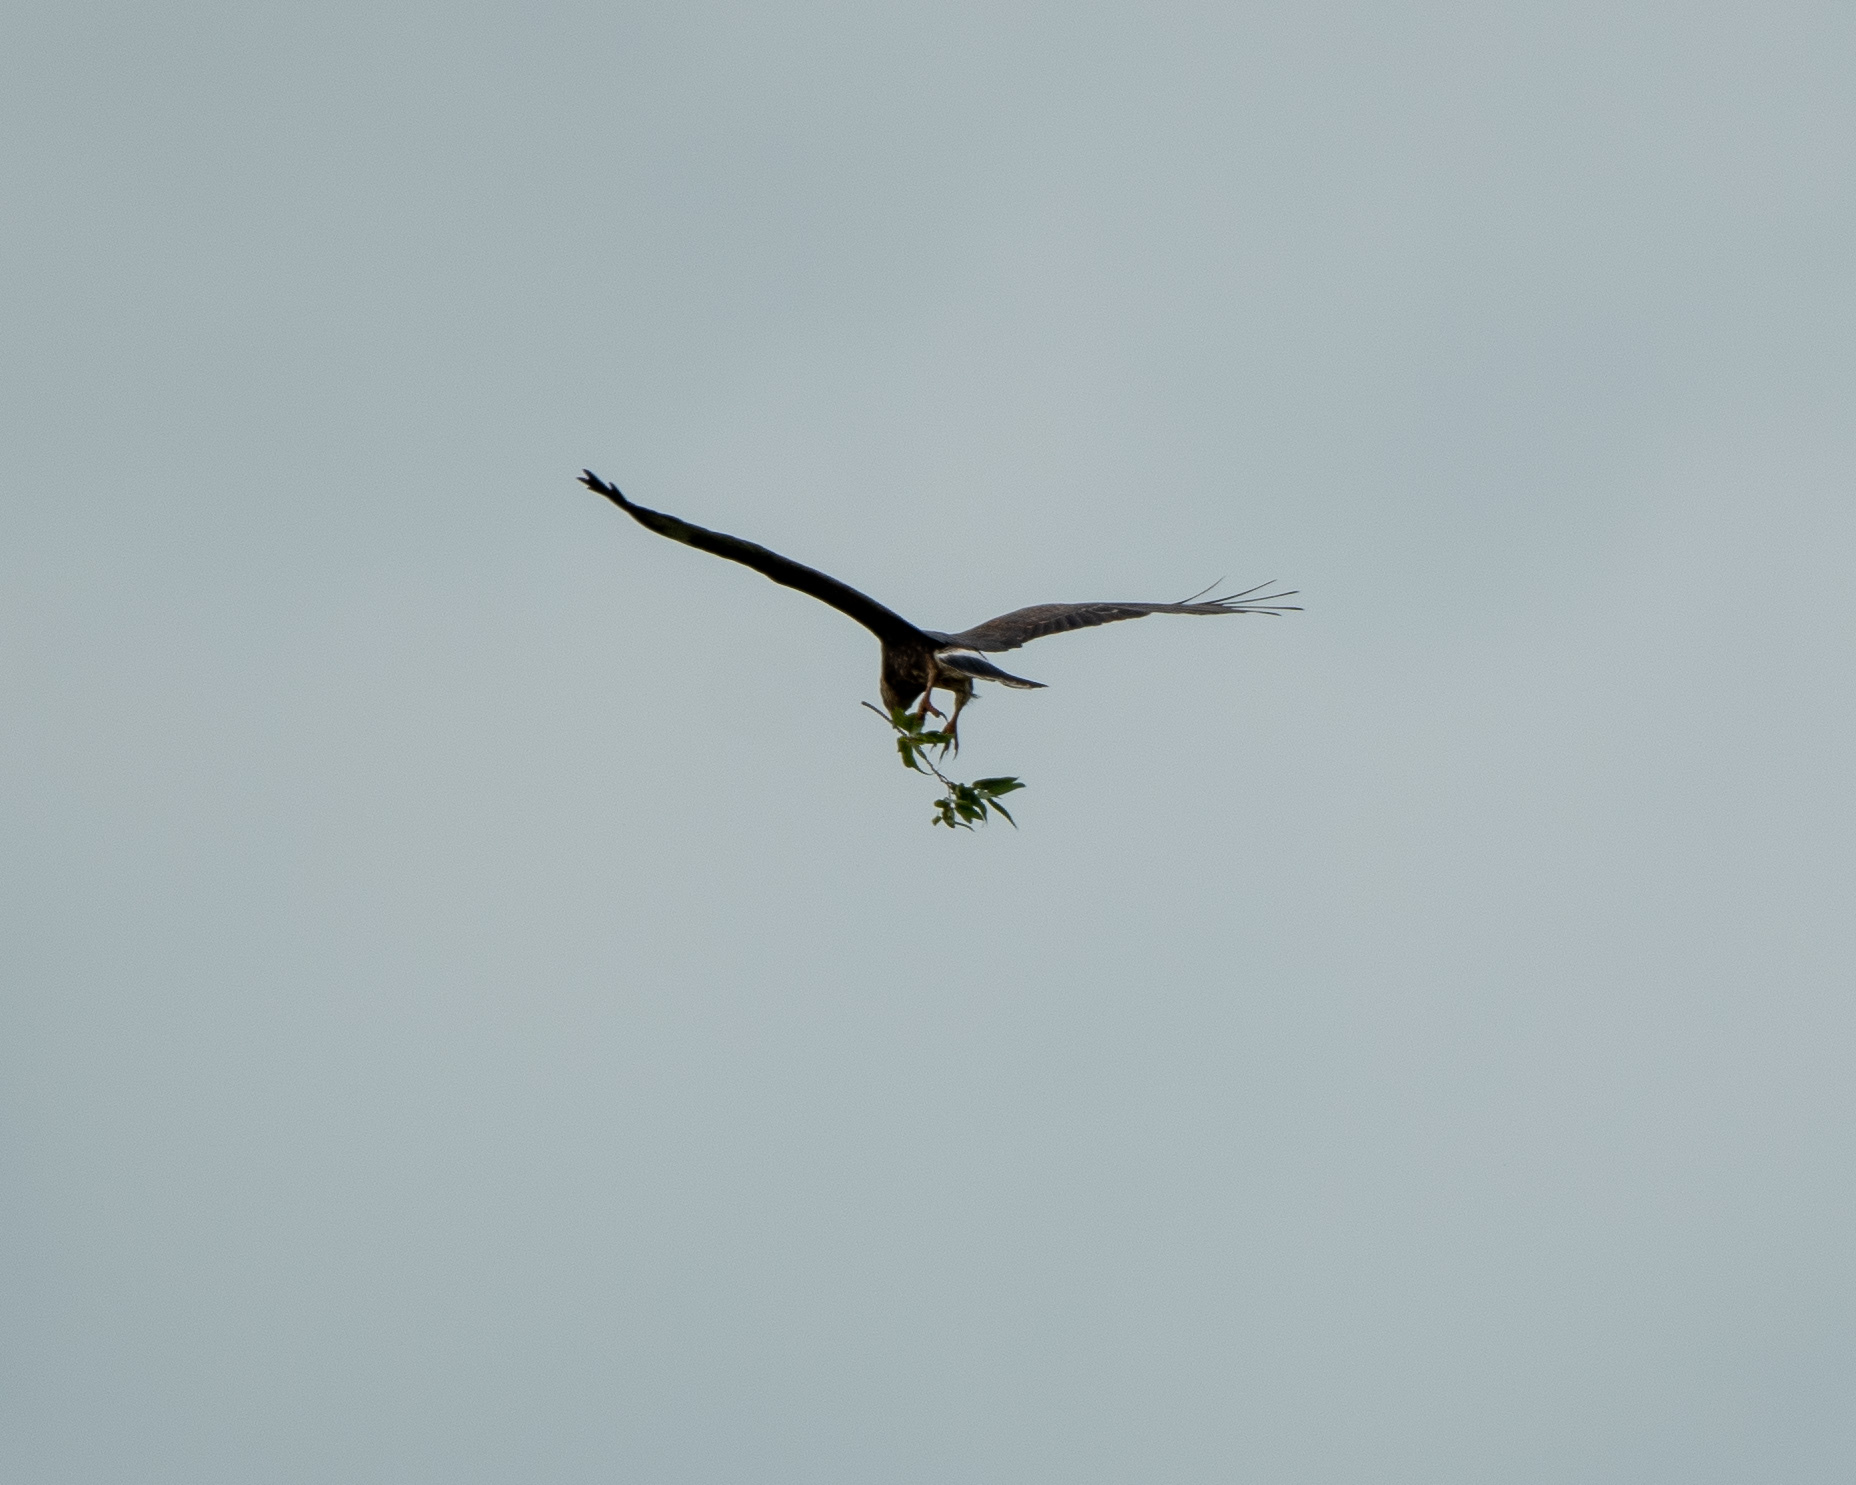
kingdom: Animalia
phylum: Chordata
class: Aves
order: Accipitriformes
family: Accipitridae
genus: Rostrhamus
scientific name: Rostrhamus sociabilis
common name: Snail kite
